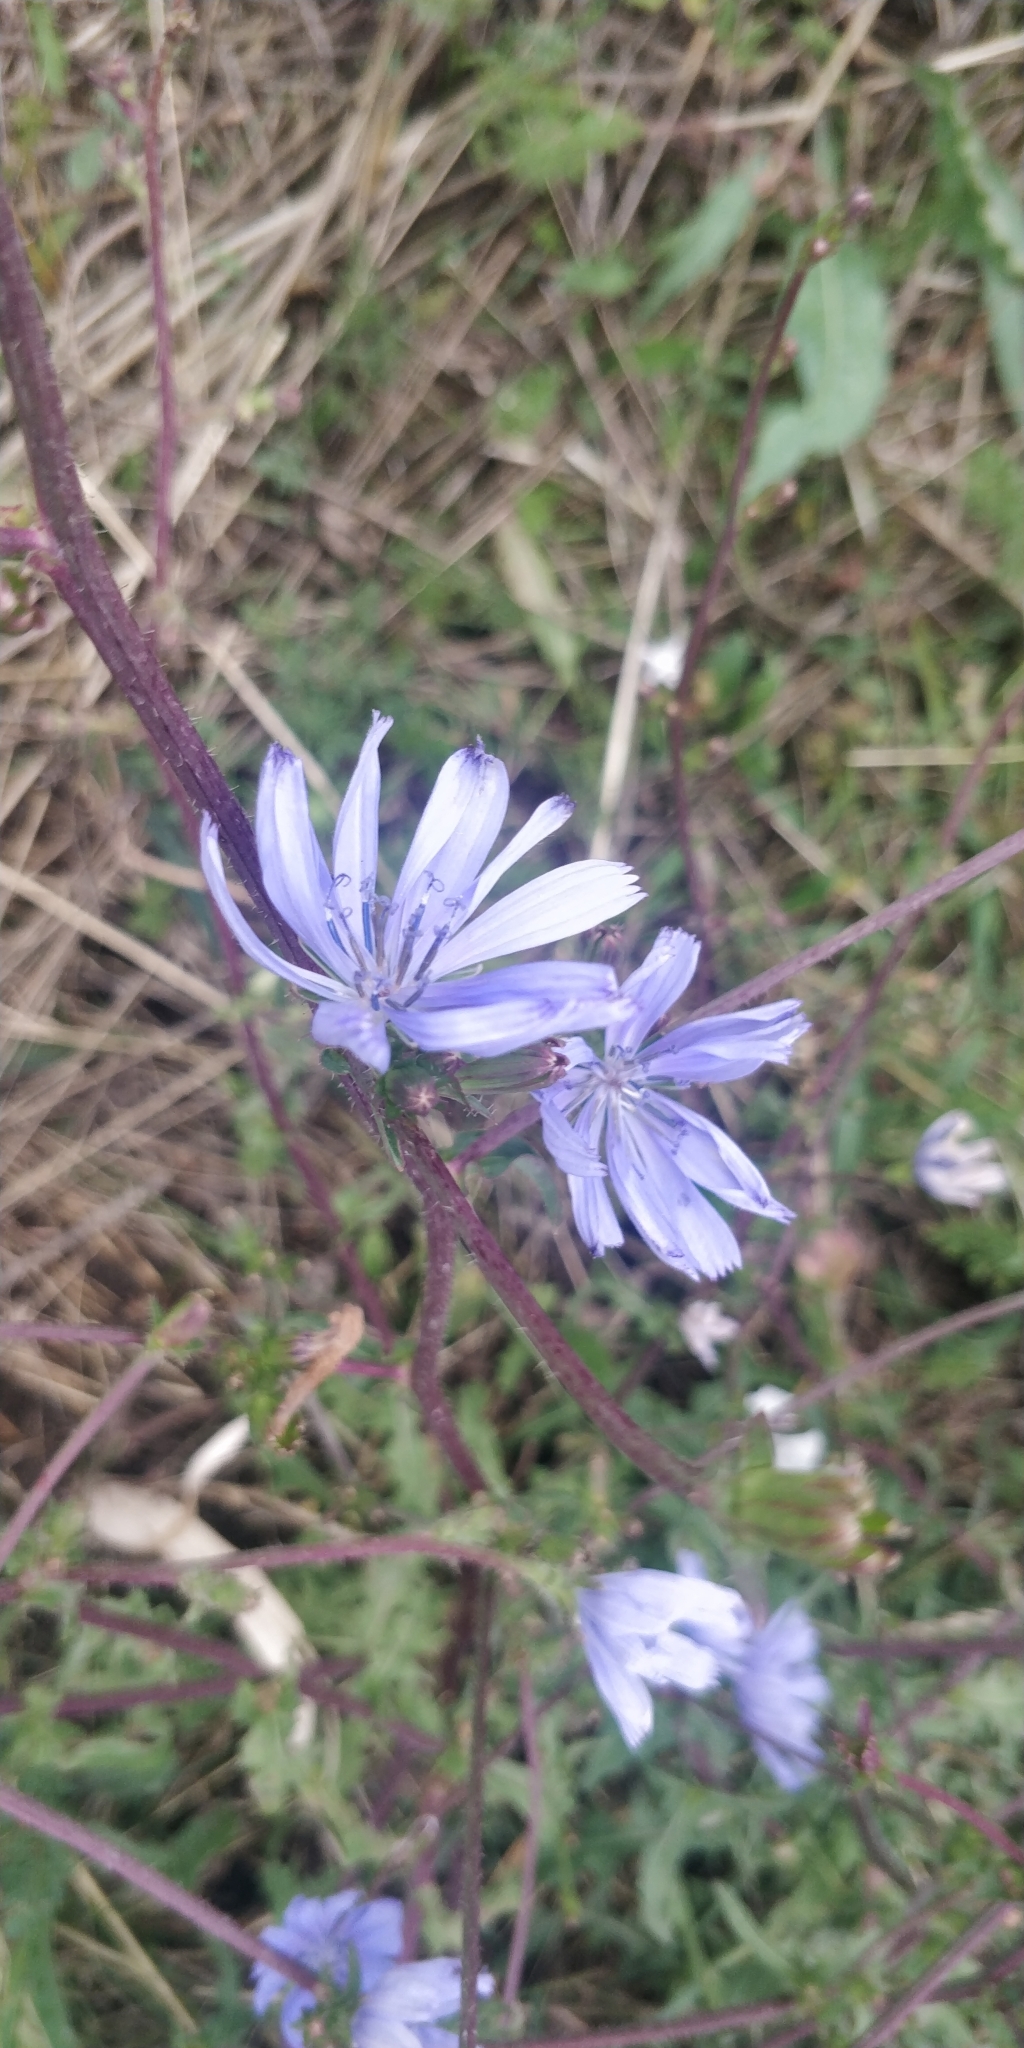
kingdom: Plantae
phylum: Tracheophyta
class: Magnoliopsida
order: Asterales
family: Asteraceae
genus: Cichorium
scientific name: Cichorium intybus
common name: Chicory
